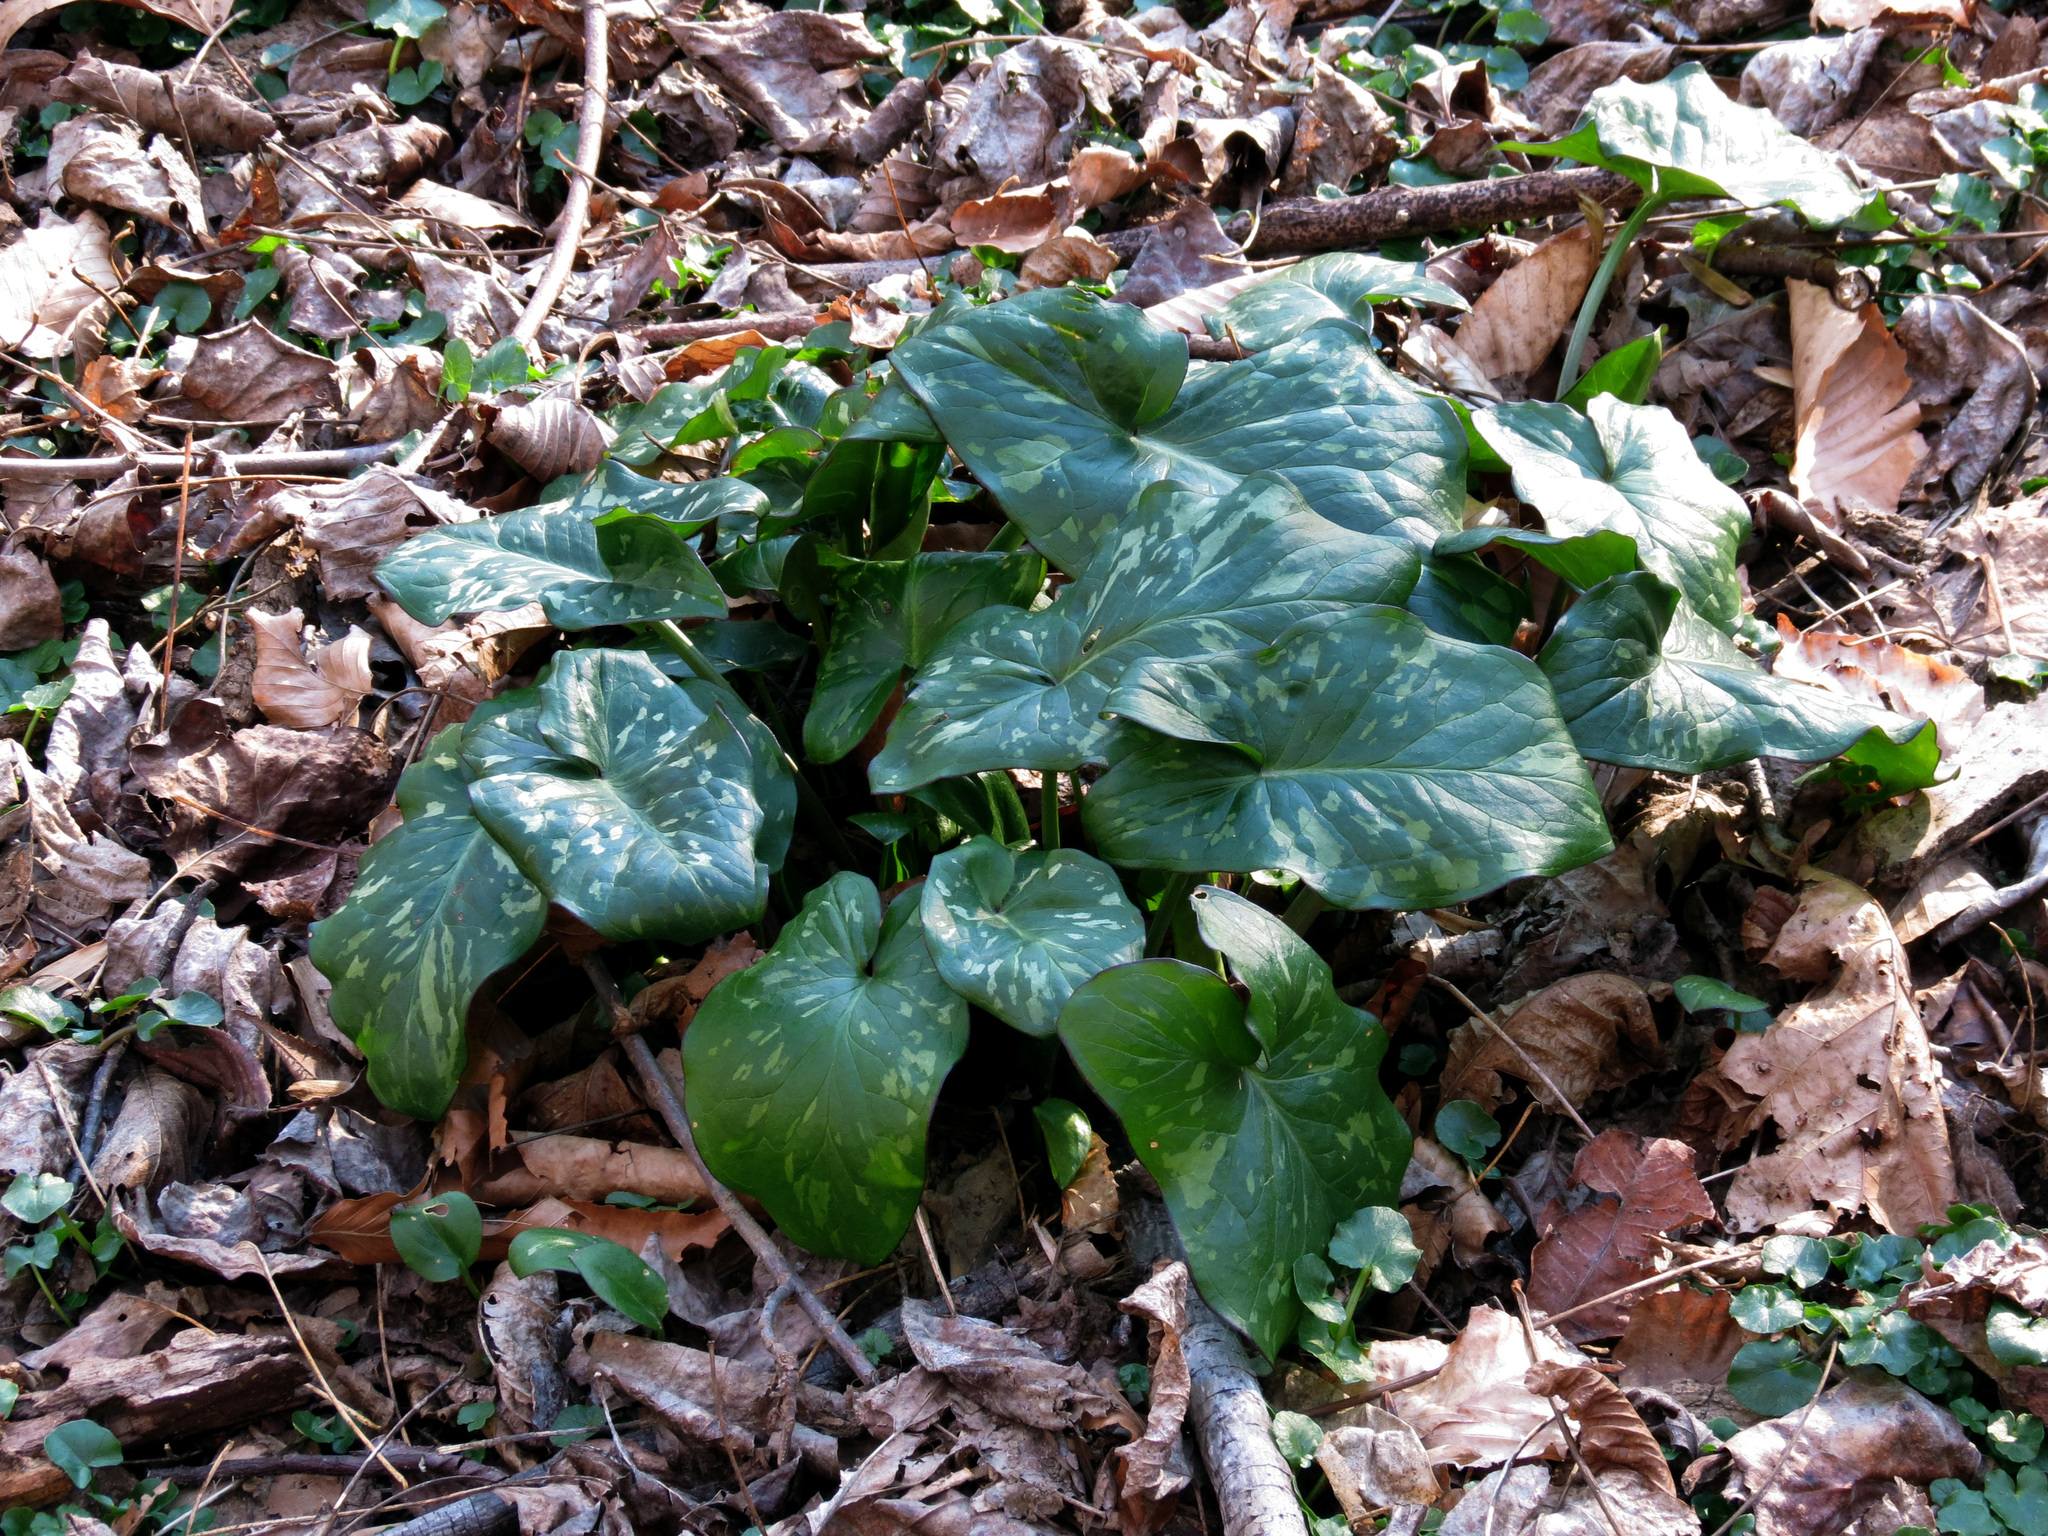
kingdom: Plantae
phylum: Tracheophyta
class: Liliopsida
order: Alismatales
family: Araceae
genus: Arum
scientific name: Arum italicum
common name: Italian lords-and-ladies
